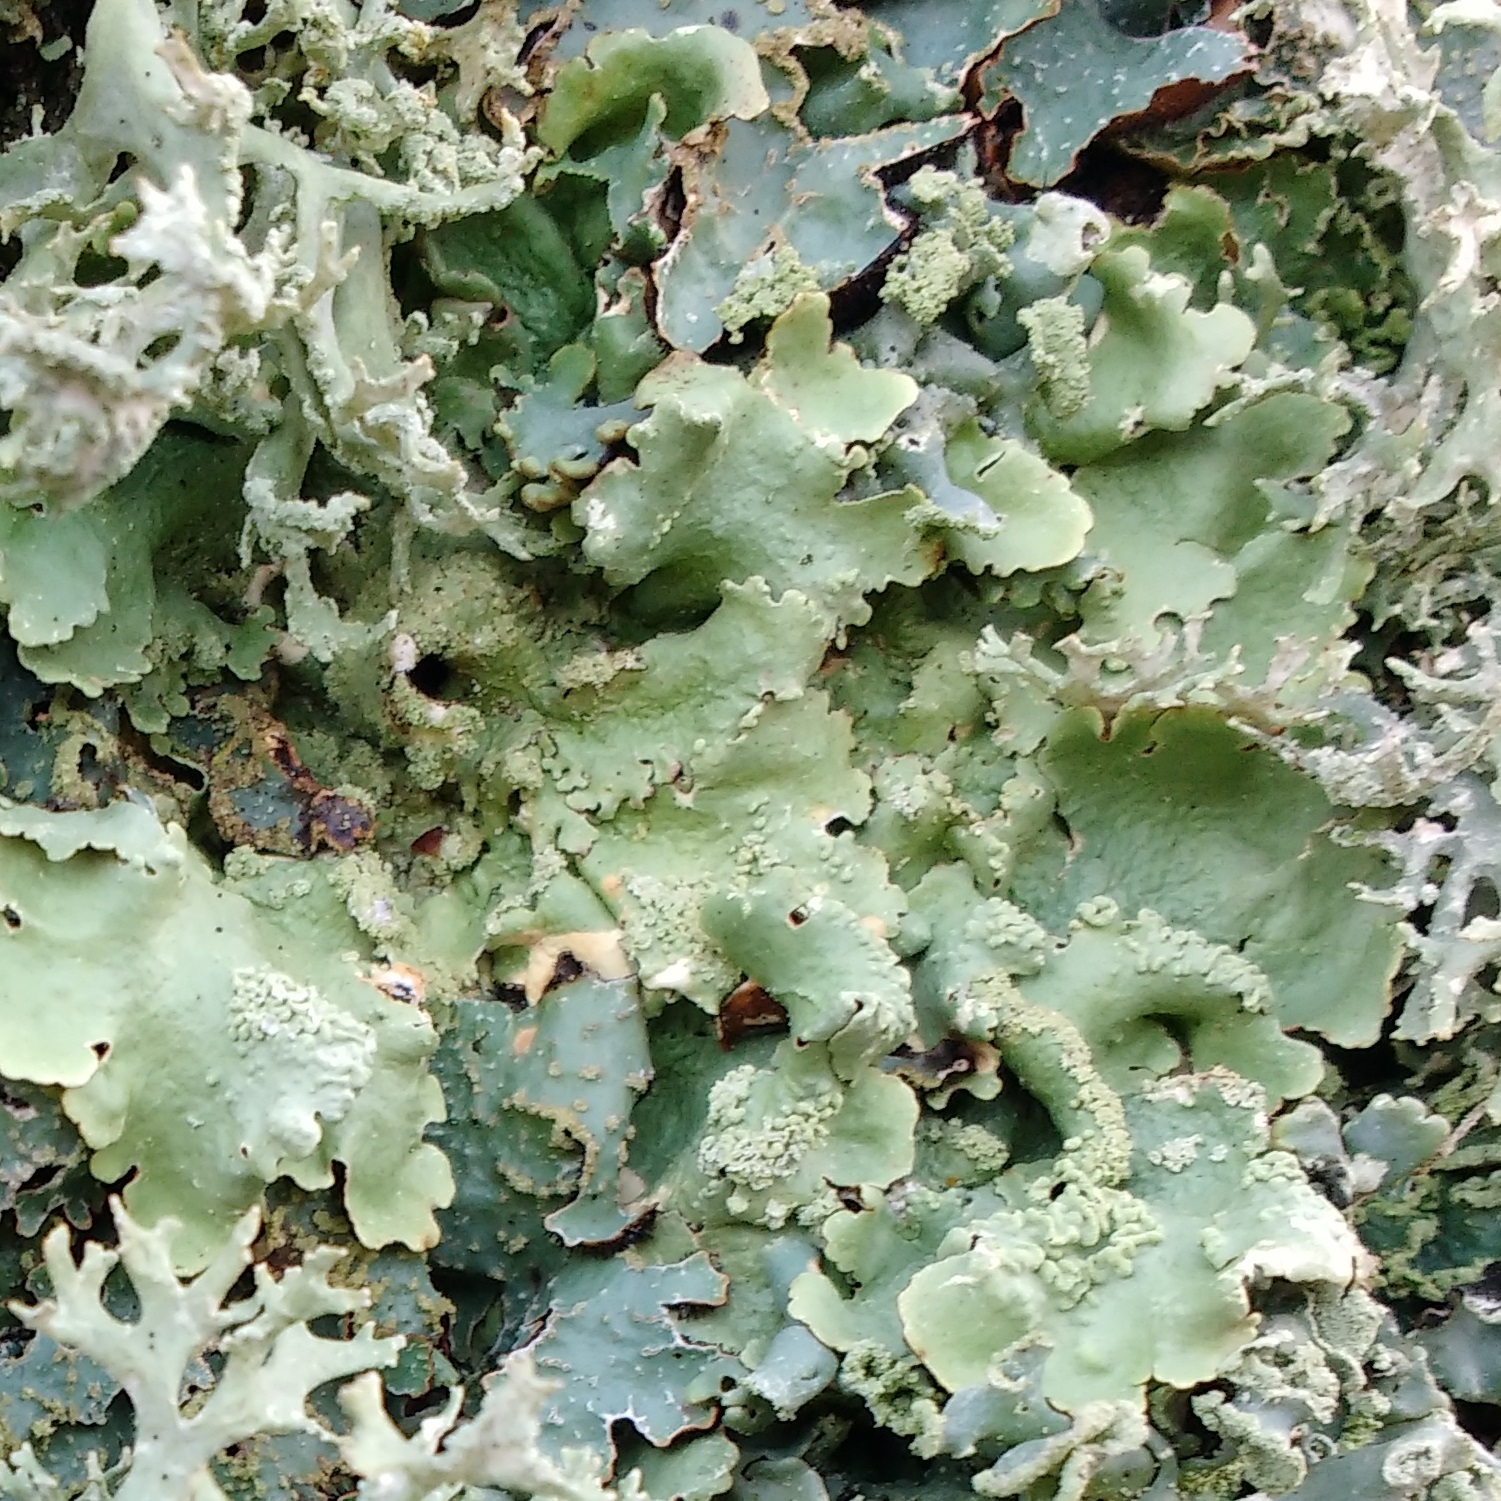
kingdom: Fungi
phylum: Ascomycota
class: Lecanoromycetes
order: Lecanorales
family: Parmeliaceae
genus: Flavoparmelia
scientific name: Flavoparmelia caperata
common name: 40-mile per hour lichen
